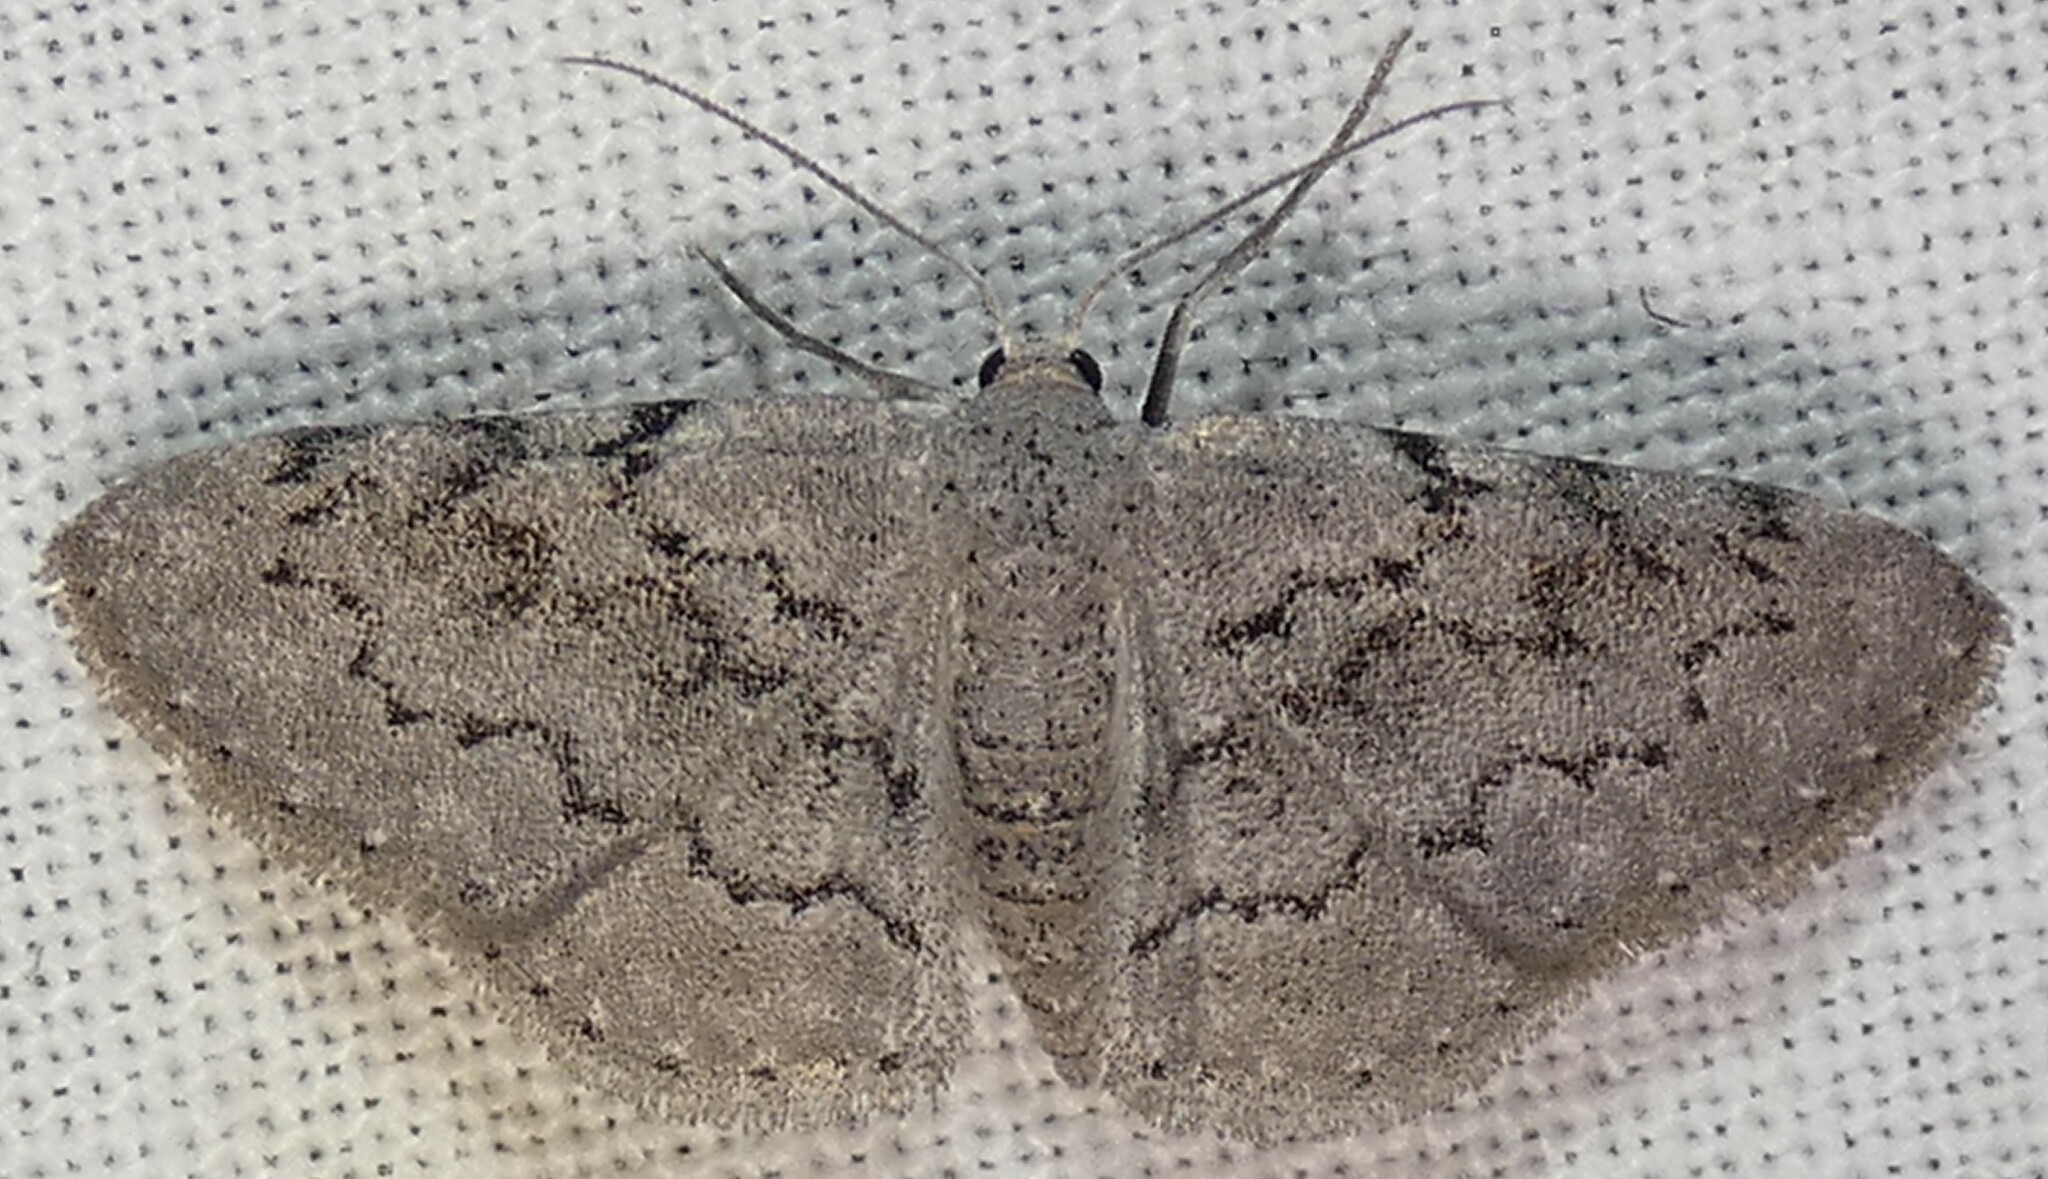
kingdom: Animalia
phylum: Arthropoda
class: Insecta
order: Lepidoptera
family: Geometridae
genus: Idaea
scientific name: Idaea violacearia
